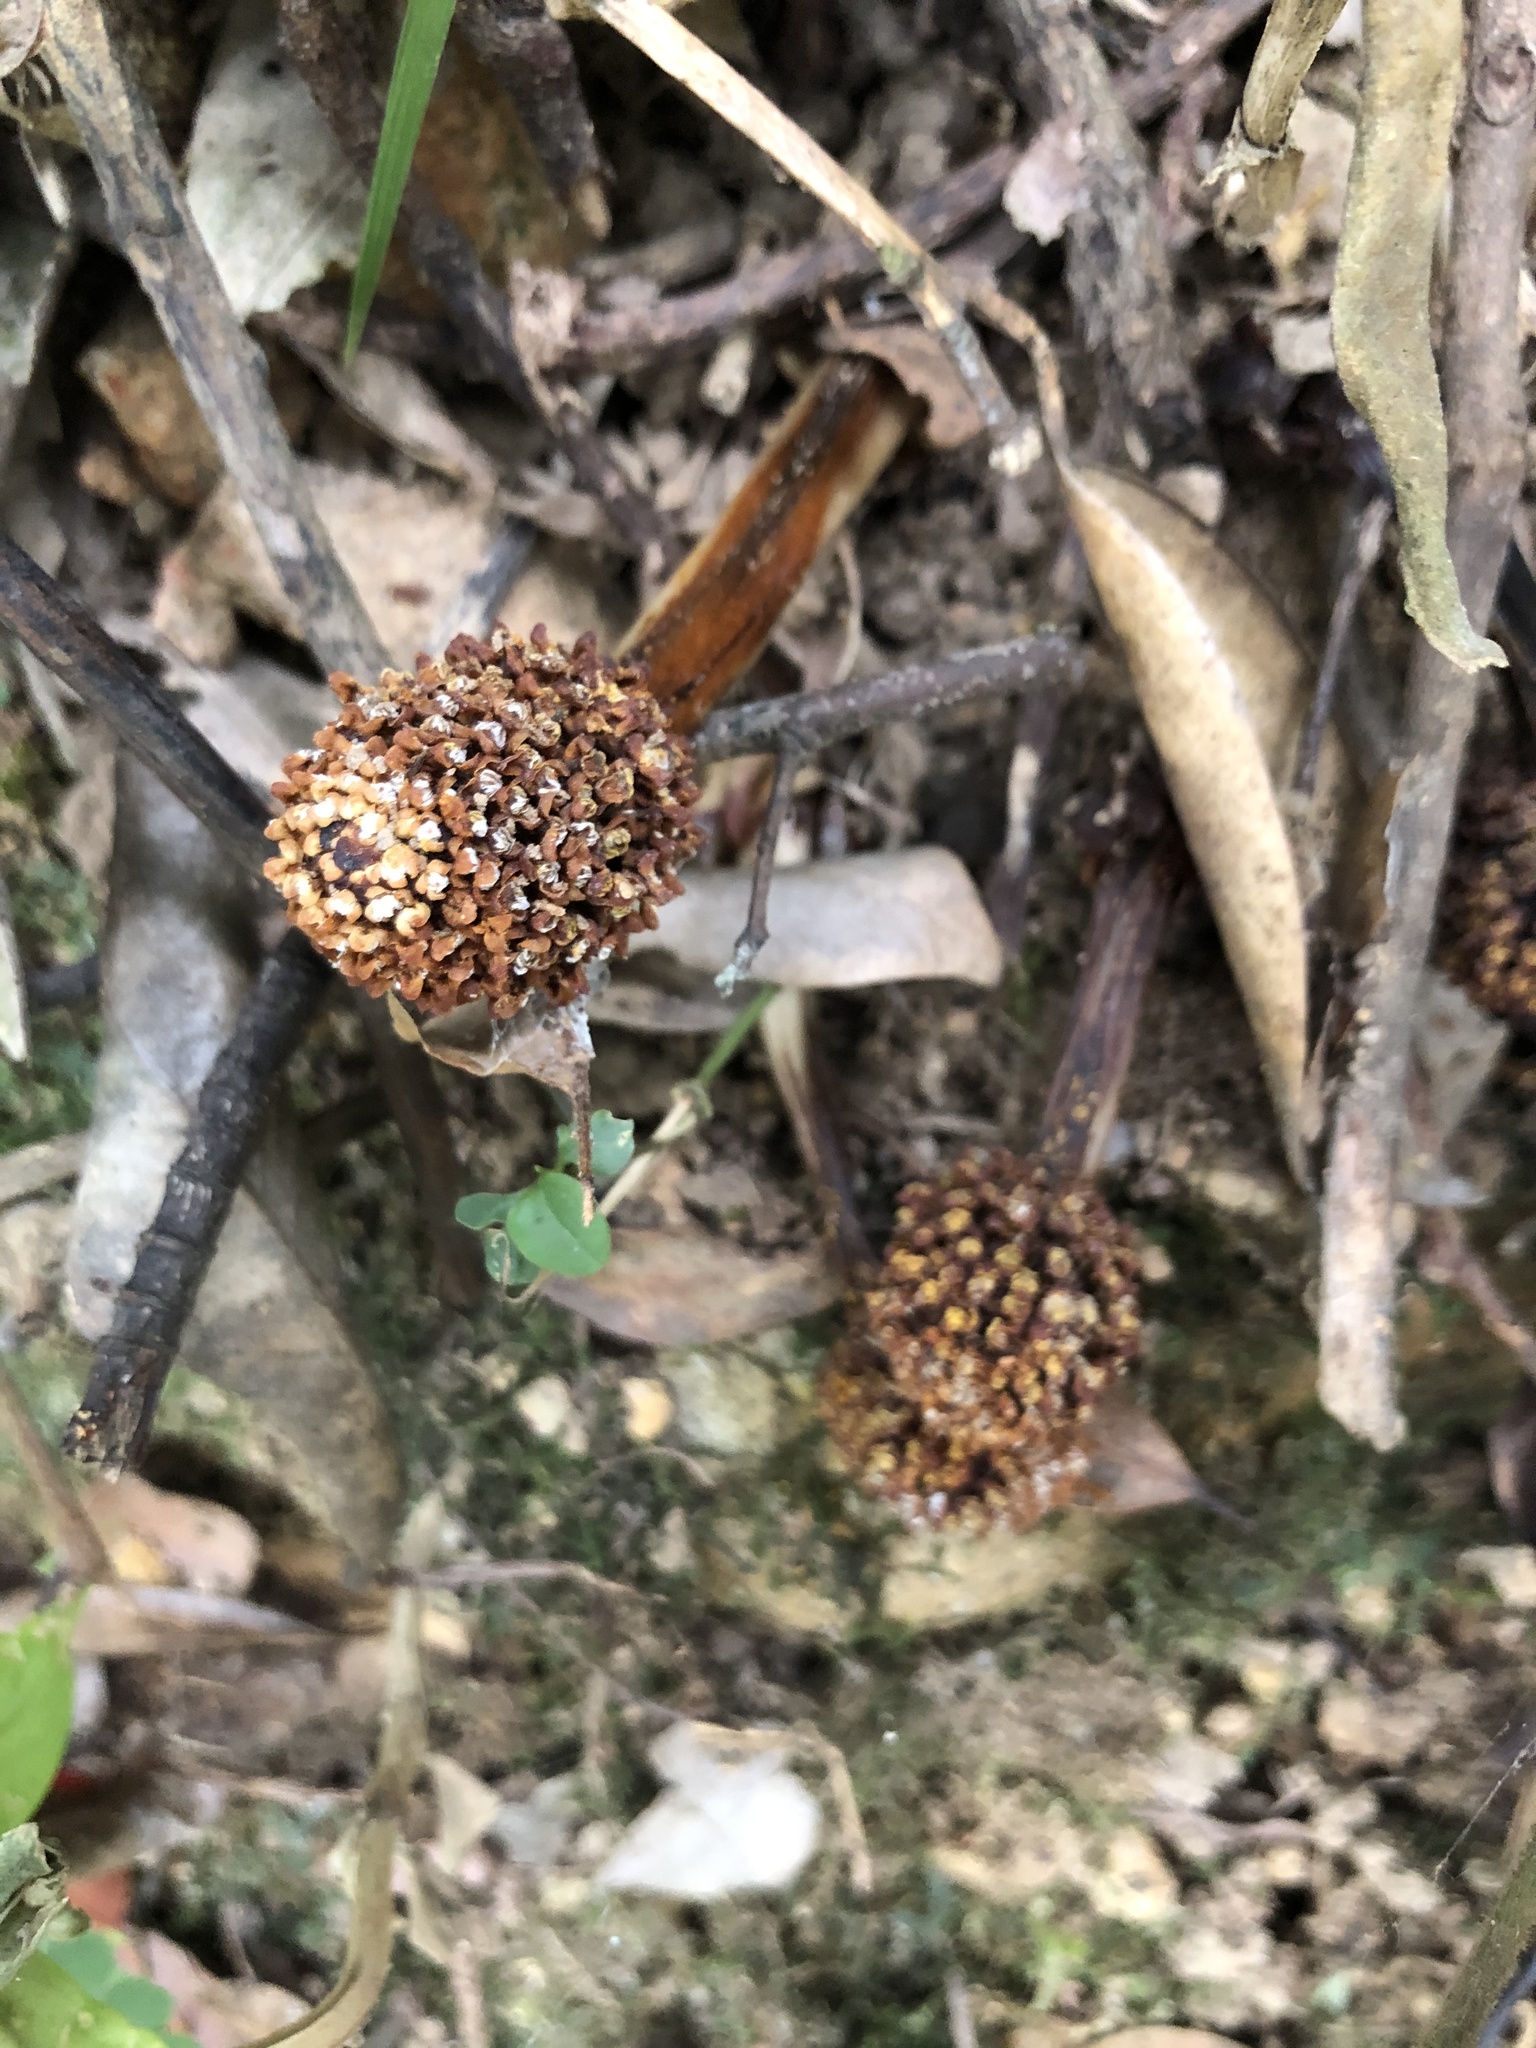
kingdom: Plantae
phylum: Tracheophyta
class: Magnoliopsida
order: Santalales
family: Balanophoraceae
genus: Balanophora
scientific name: Balanophora harlandii
